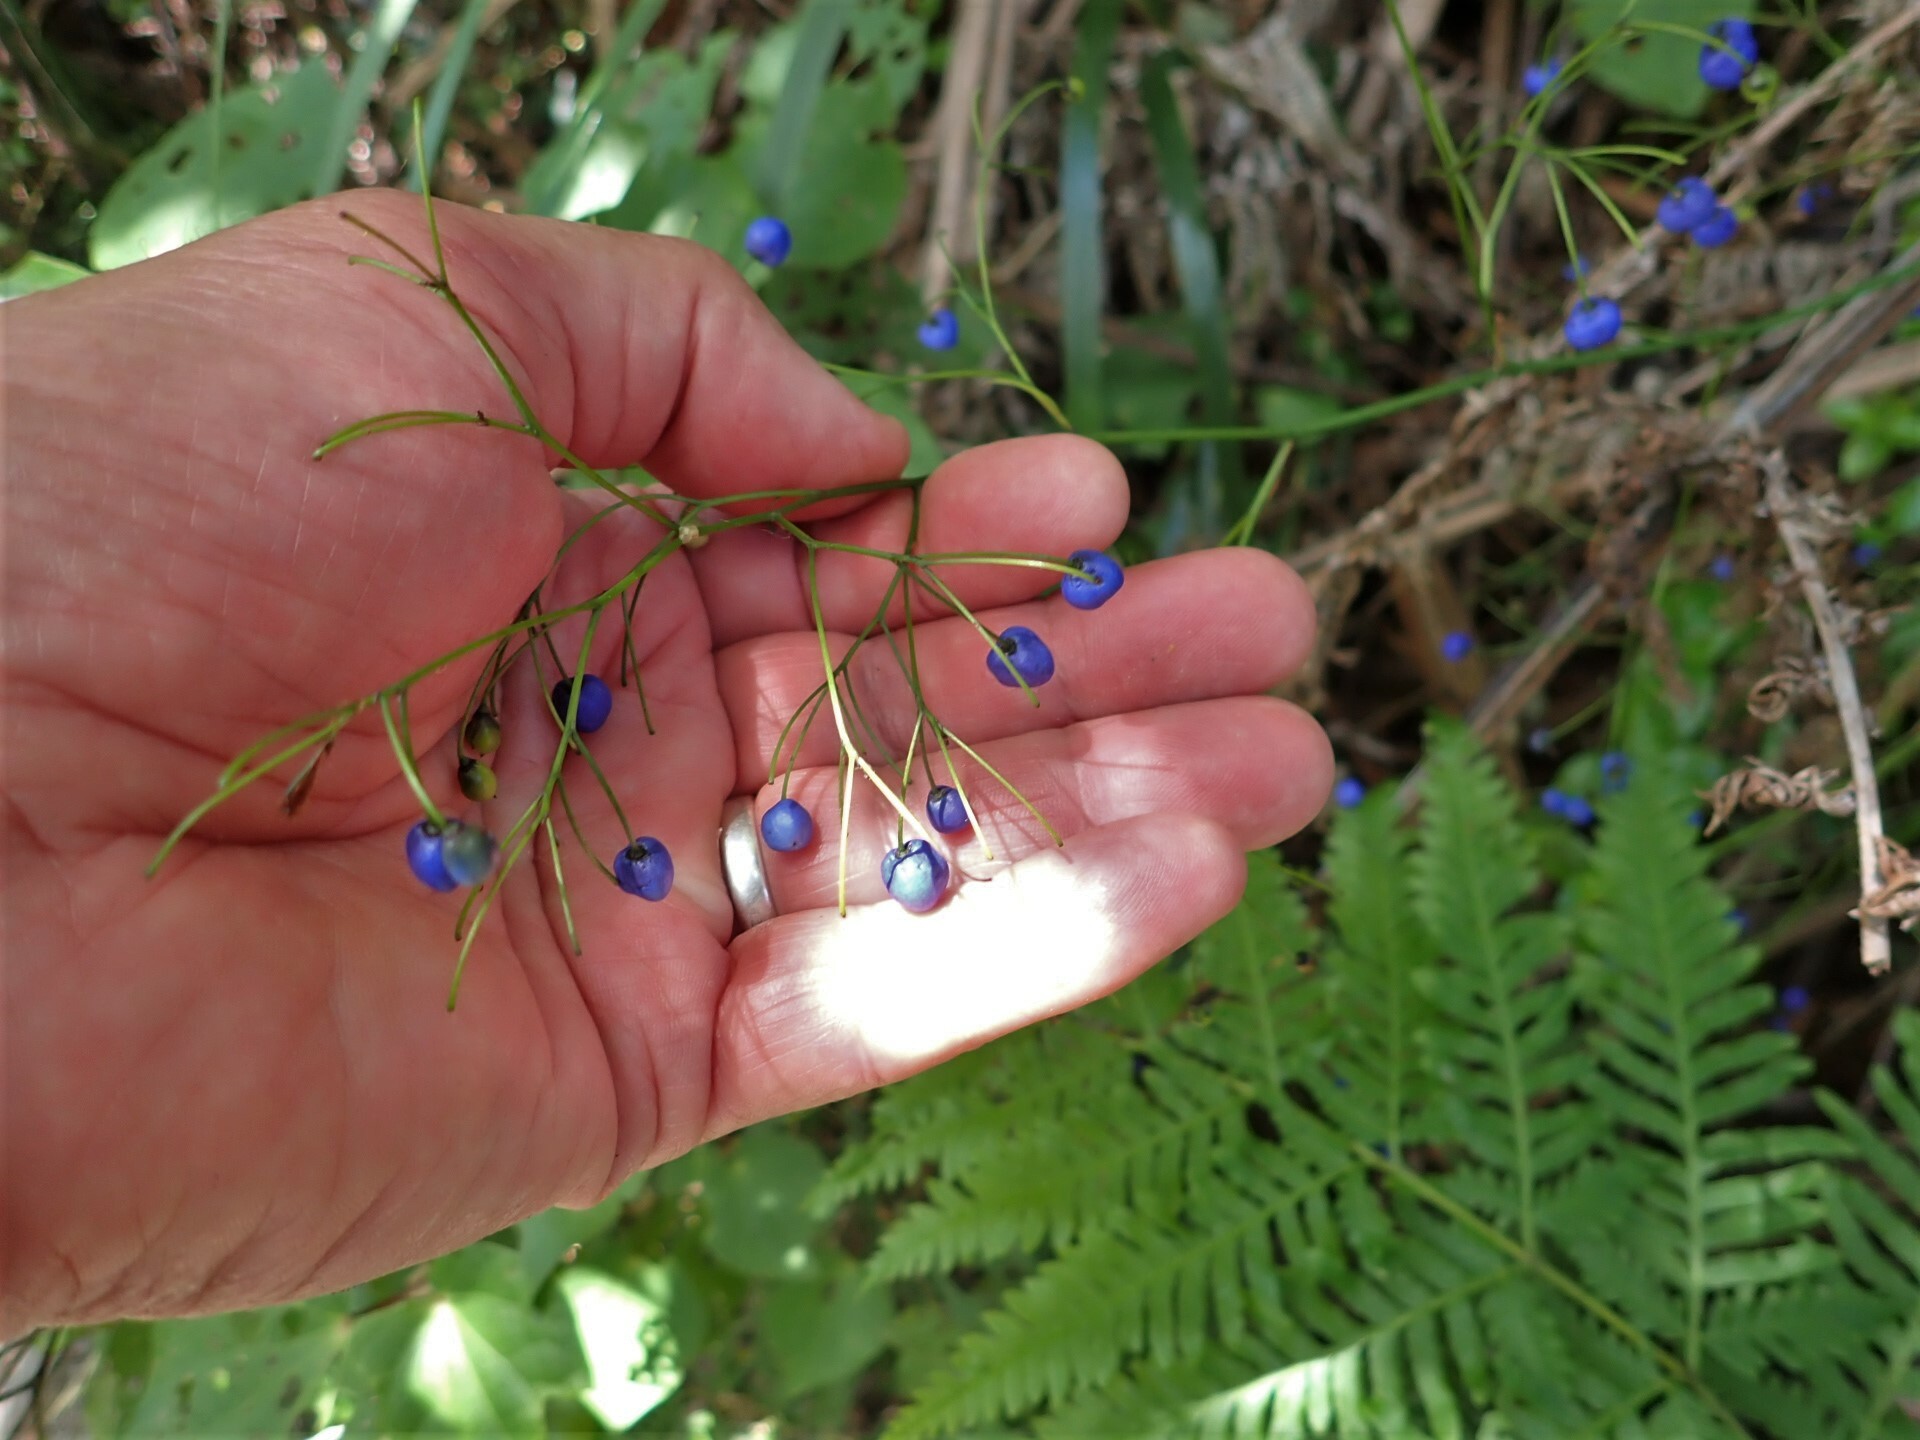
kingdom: Plantae
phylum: Tracheophyta
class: Liliopsida
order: Asparagales
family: Asphodelaceae
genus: Dianella
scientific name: Dianella nigra
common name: New zealand-blueberry
